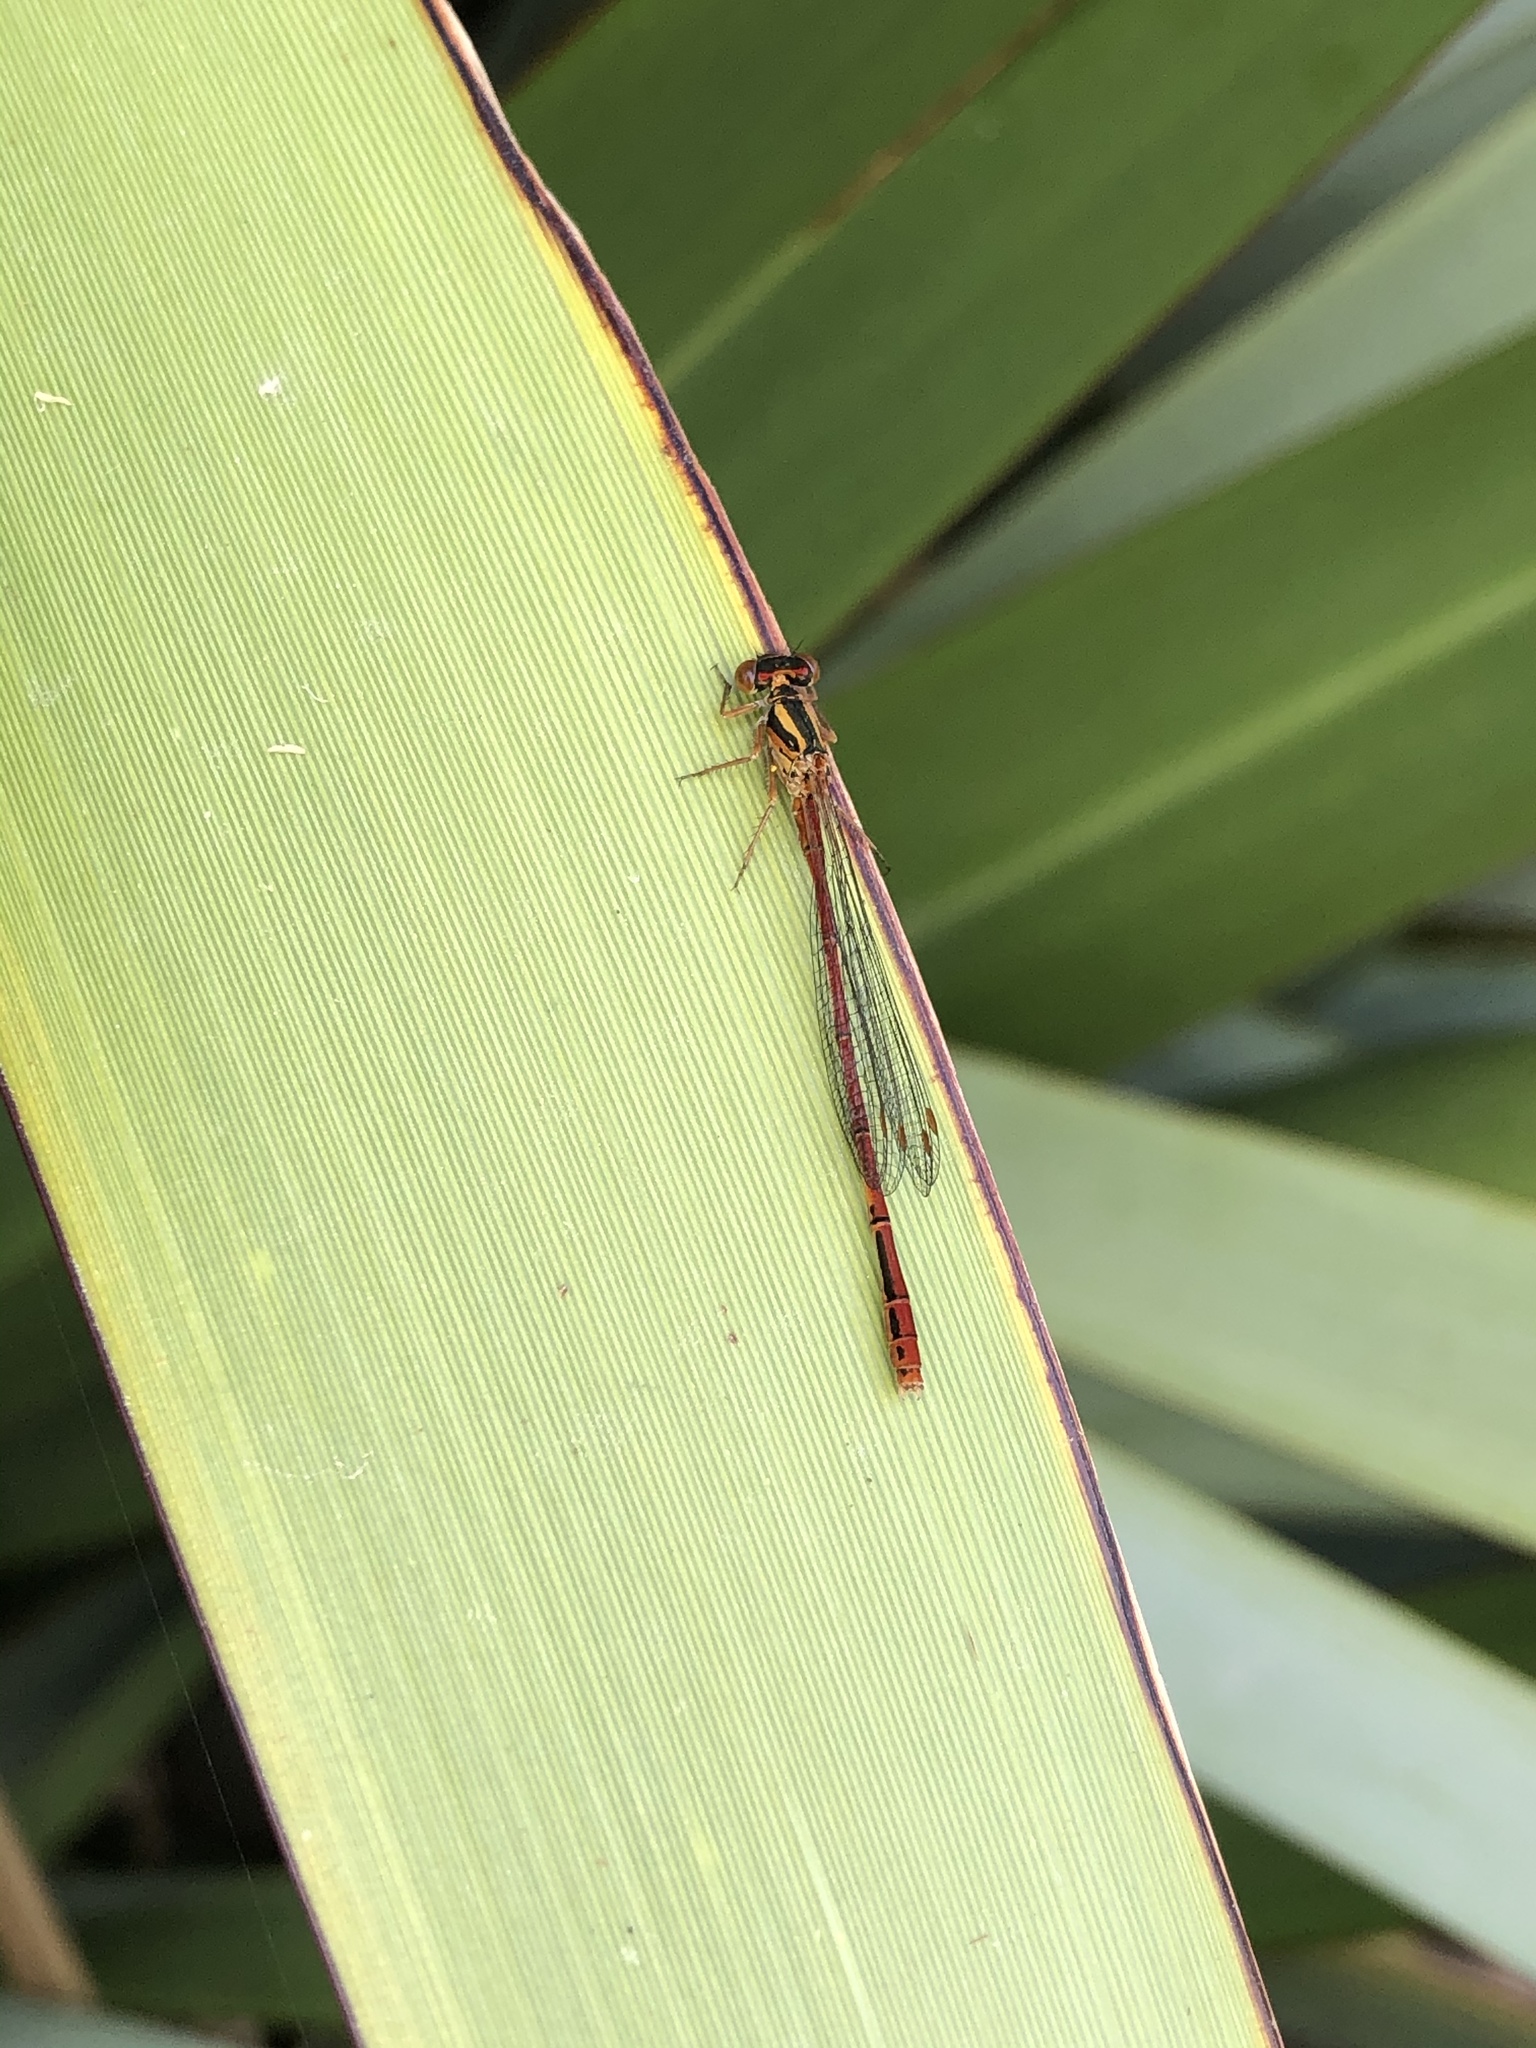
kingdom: Animalia
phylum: Arthropoda
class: Insecta
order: Odonata
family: Coenagrionidae
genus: Xanthocnemis
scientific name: Xanthocnemis zealandica
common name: Common redcoat damselfly
